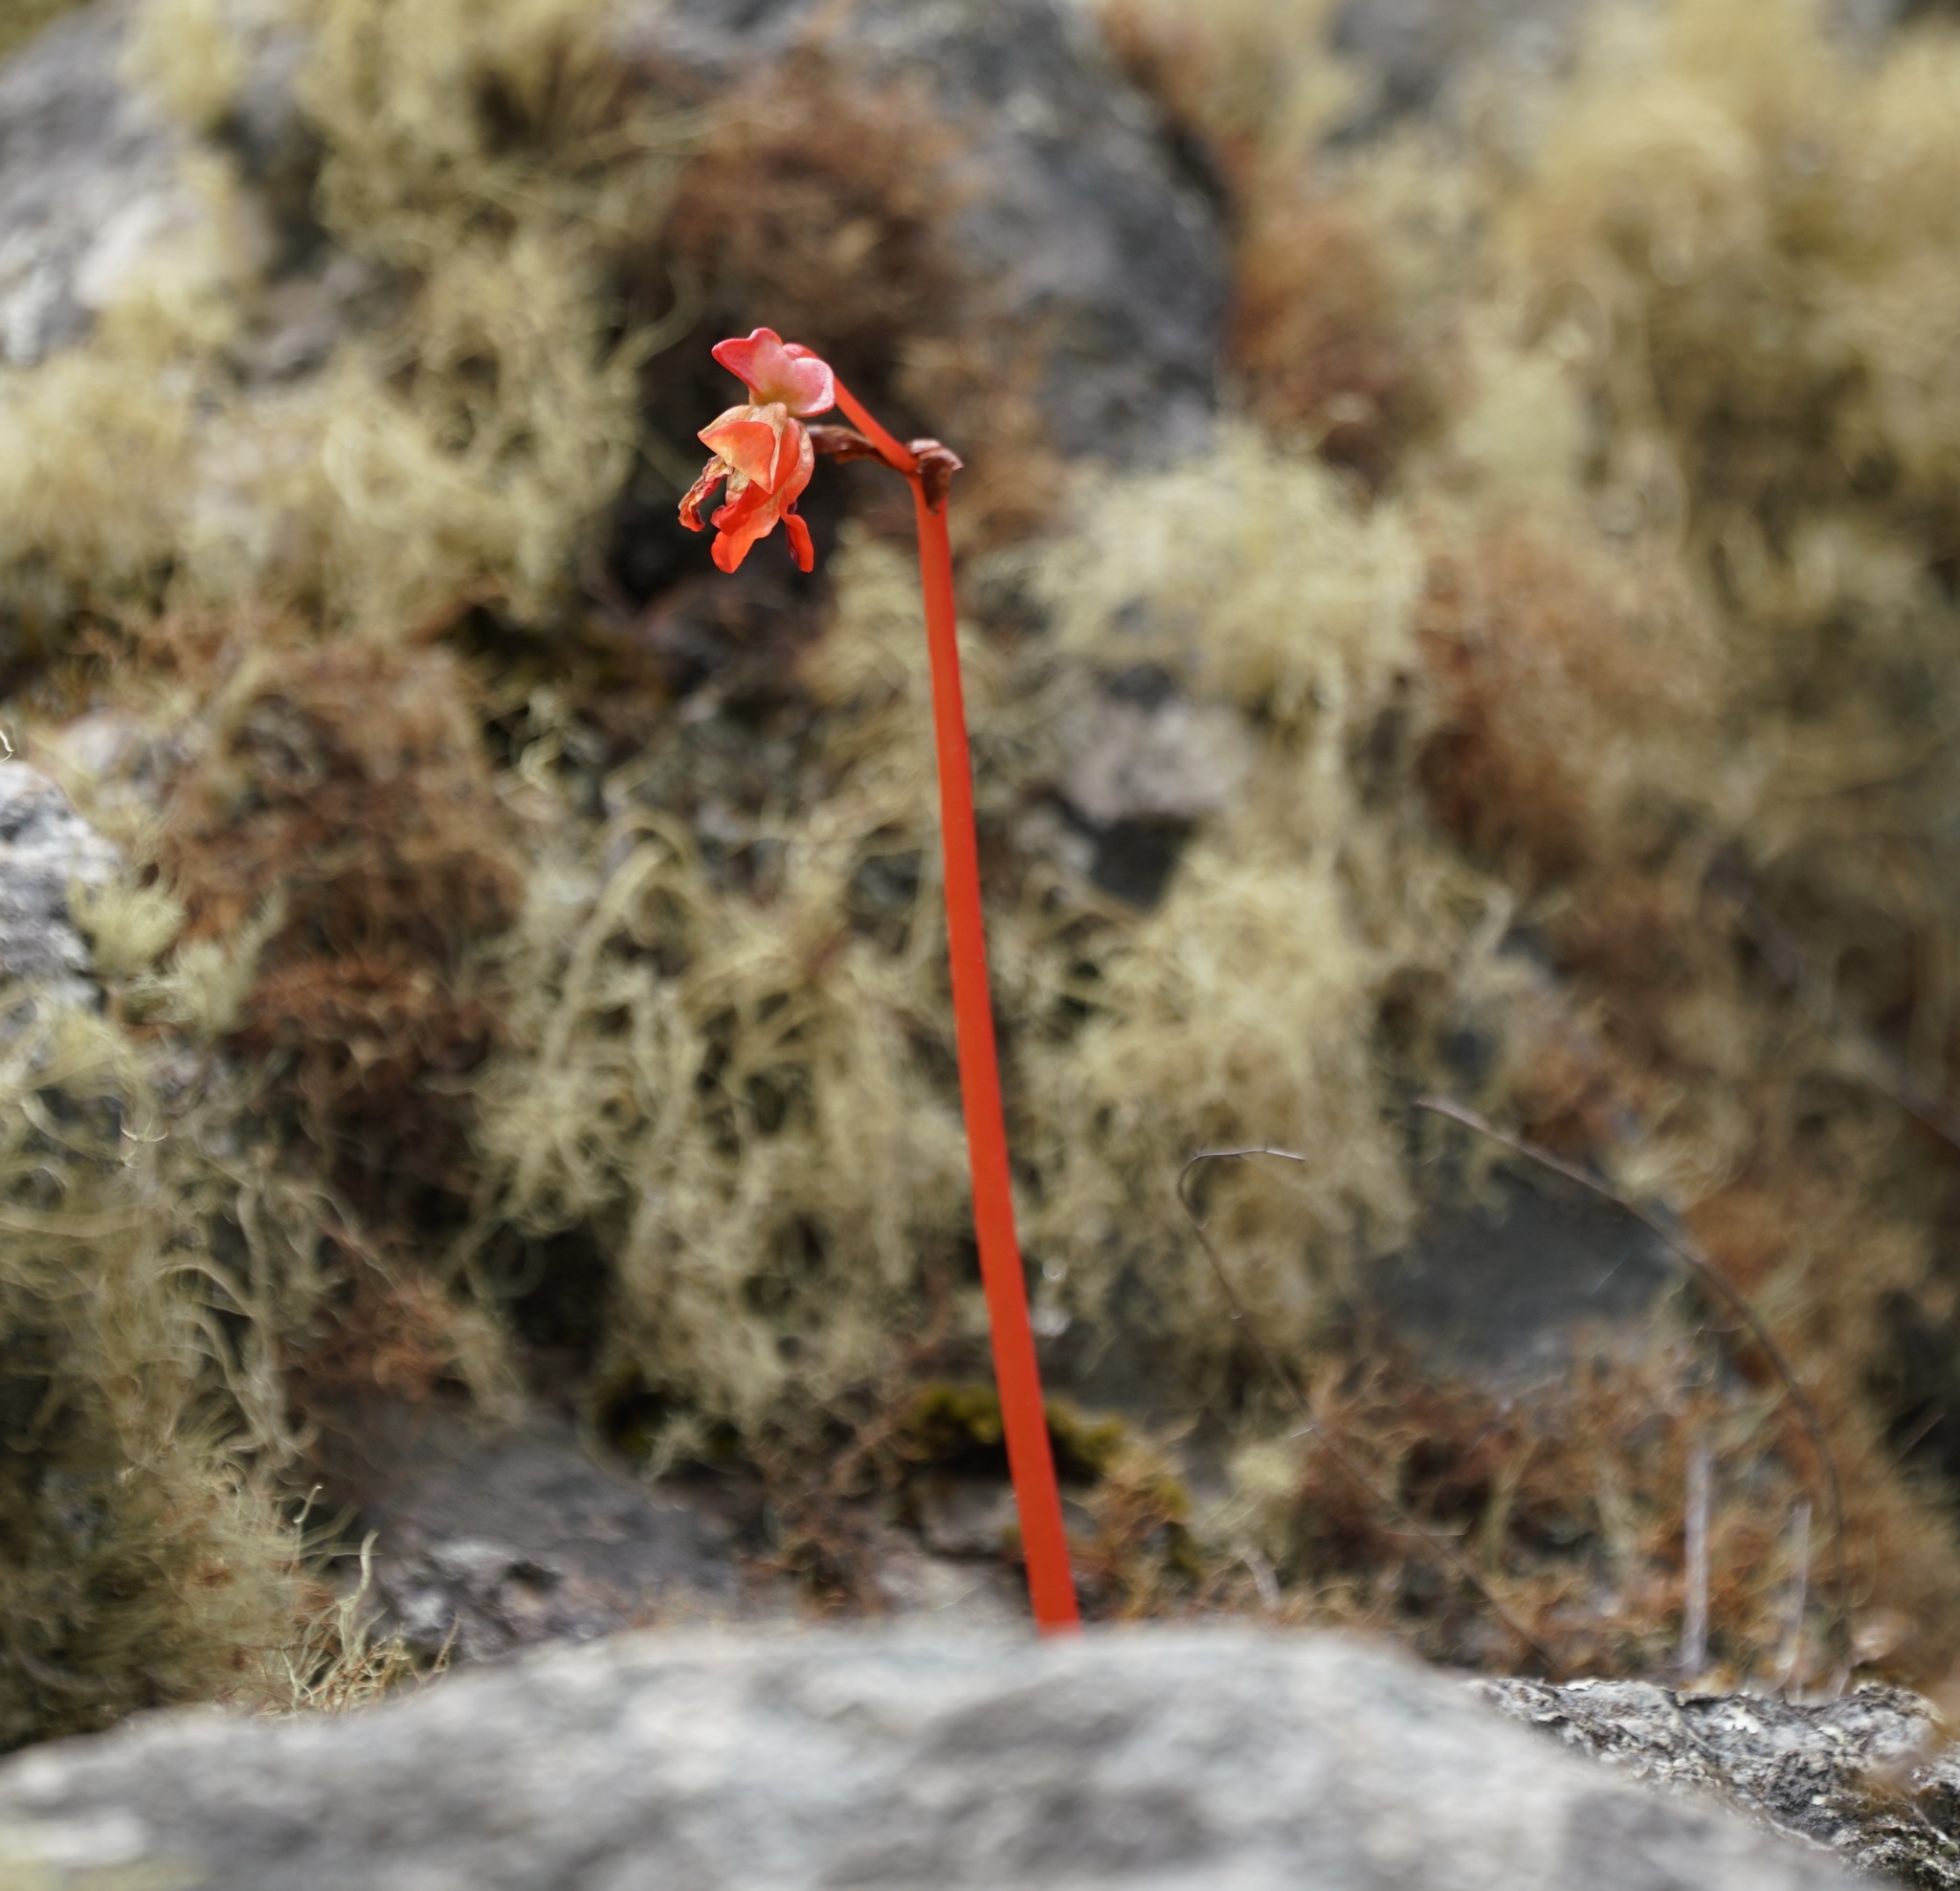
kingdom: Plantae
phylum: Tracheophyta
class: Magnoliopsida
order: Cucurbitales
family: Begoniaceae
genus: Begonia
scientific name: Begonia veitchii
